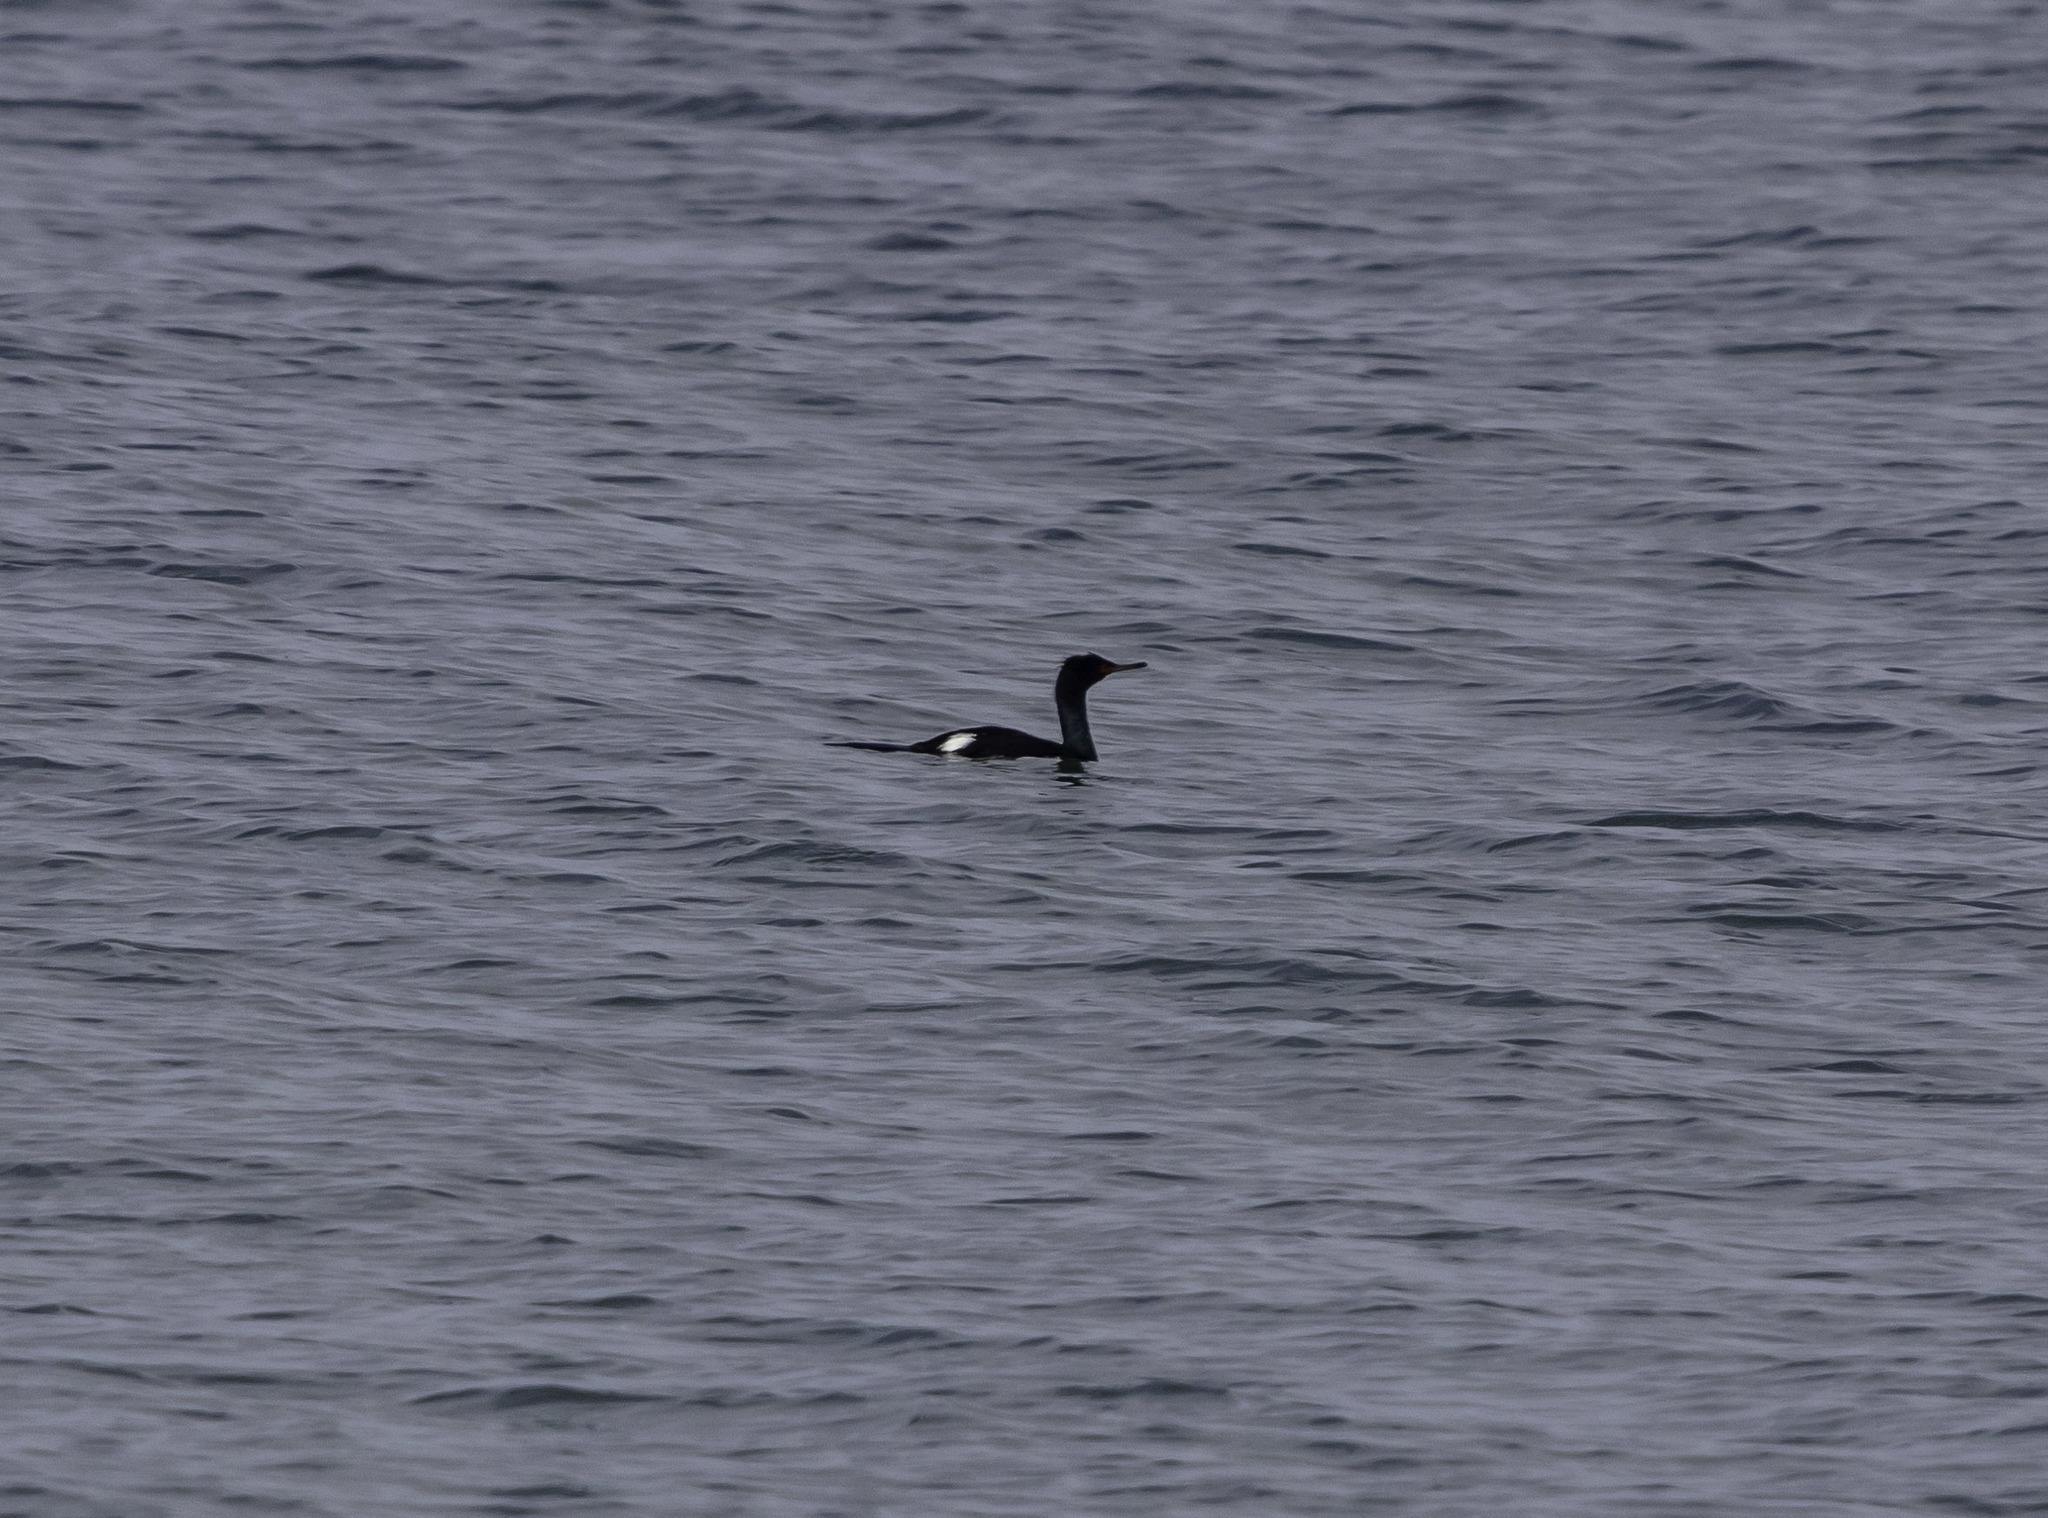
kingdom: Animalia
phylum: Chordata
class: Aves
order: Suliformes
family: Phalacrocoracidae
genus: Phalacrocorax
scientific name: Phalacrocorax pelagicus
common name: Pelagic cormorant
